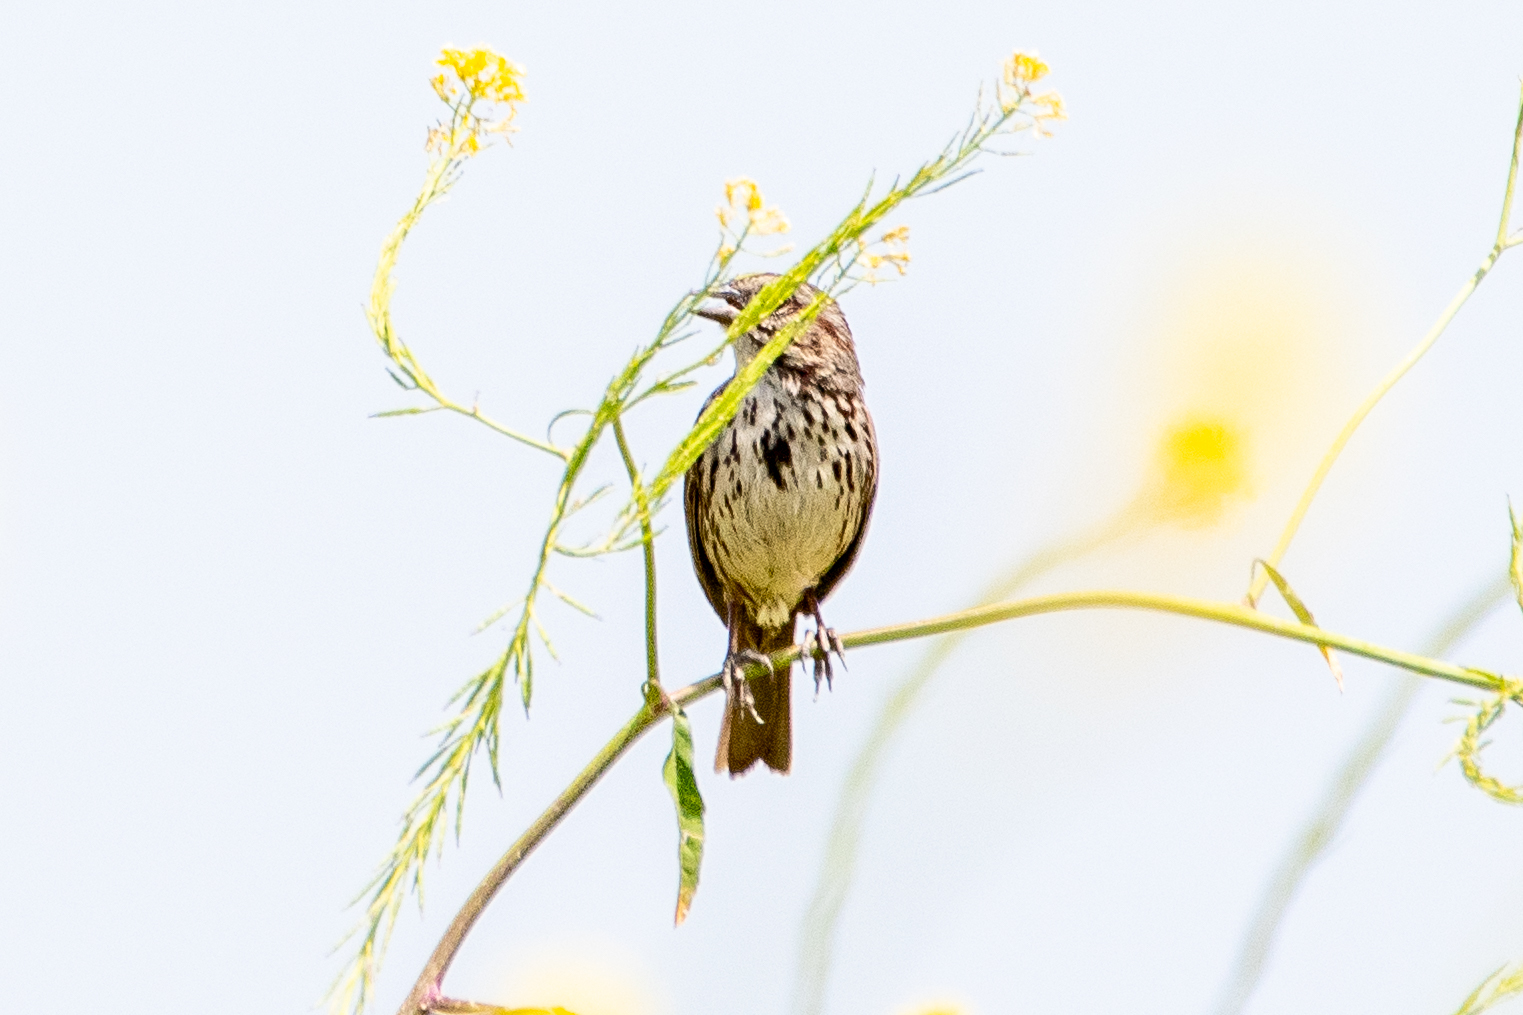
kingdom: Animalia
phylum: Chordata
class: Aves
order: Passeriformes
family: Passerellidae
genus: Melospiza
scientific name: Melospiza melodia
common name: Song sparrow
